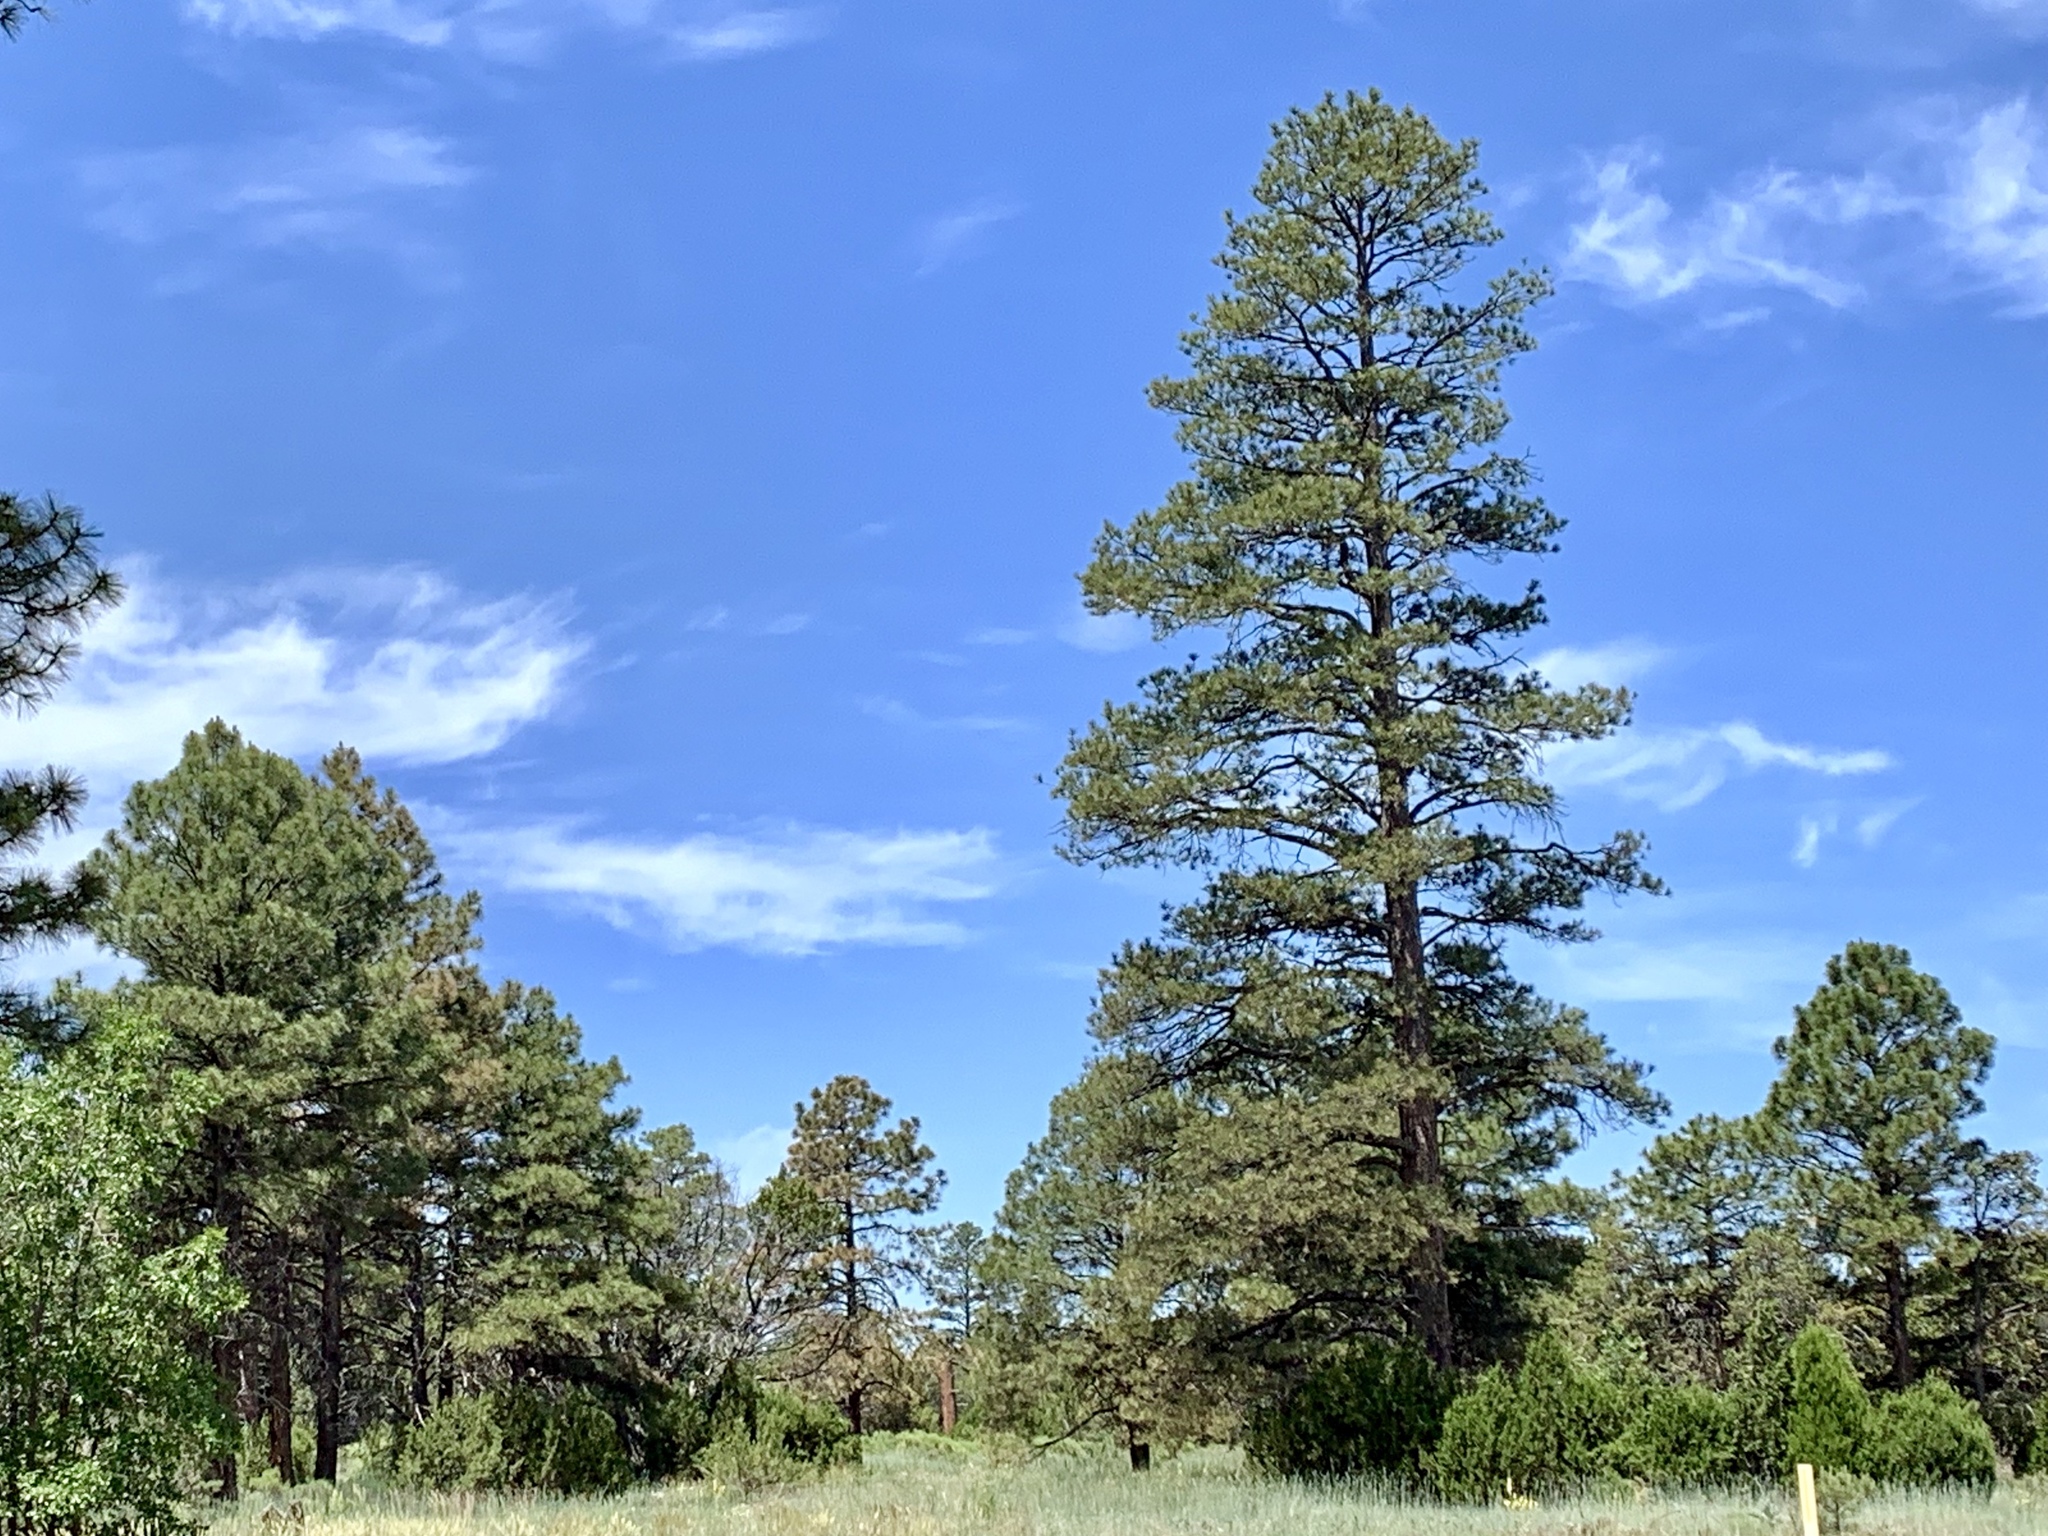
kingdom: Plantae
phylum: Tracheophyta
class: Pinopsida
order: Pinales
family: Pinaceae
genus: Pinus
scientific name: Pinus ponderosa
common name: Western yellow-pine
